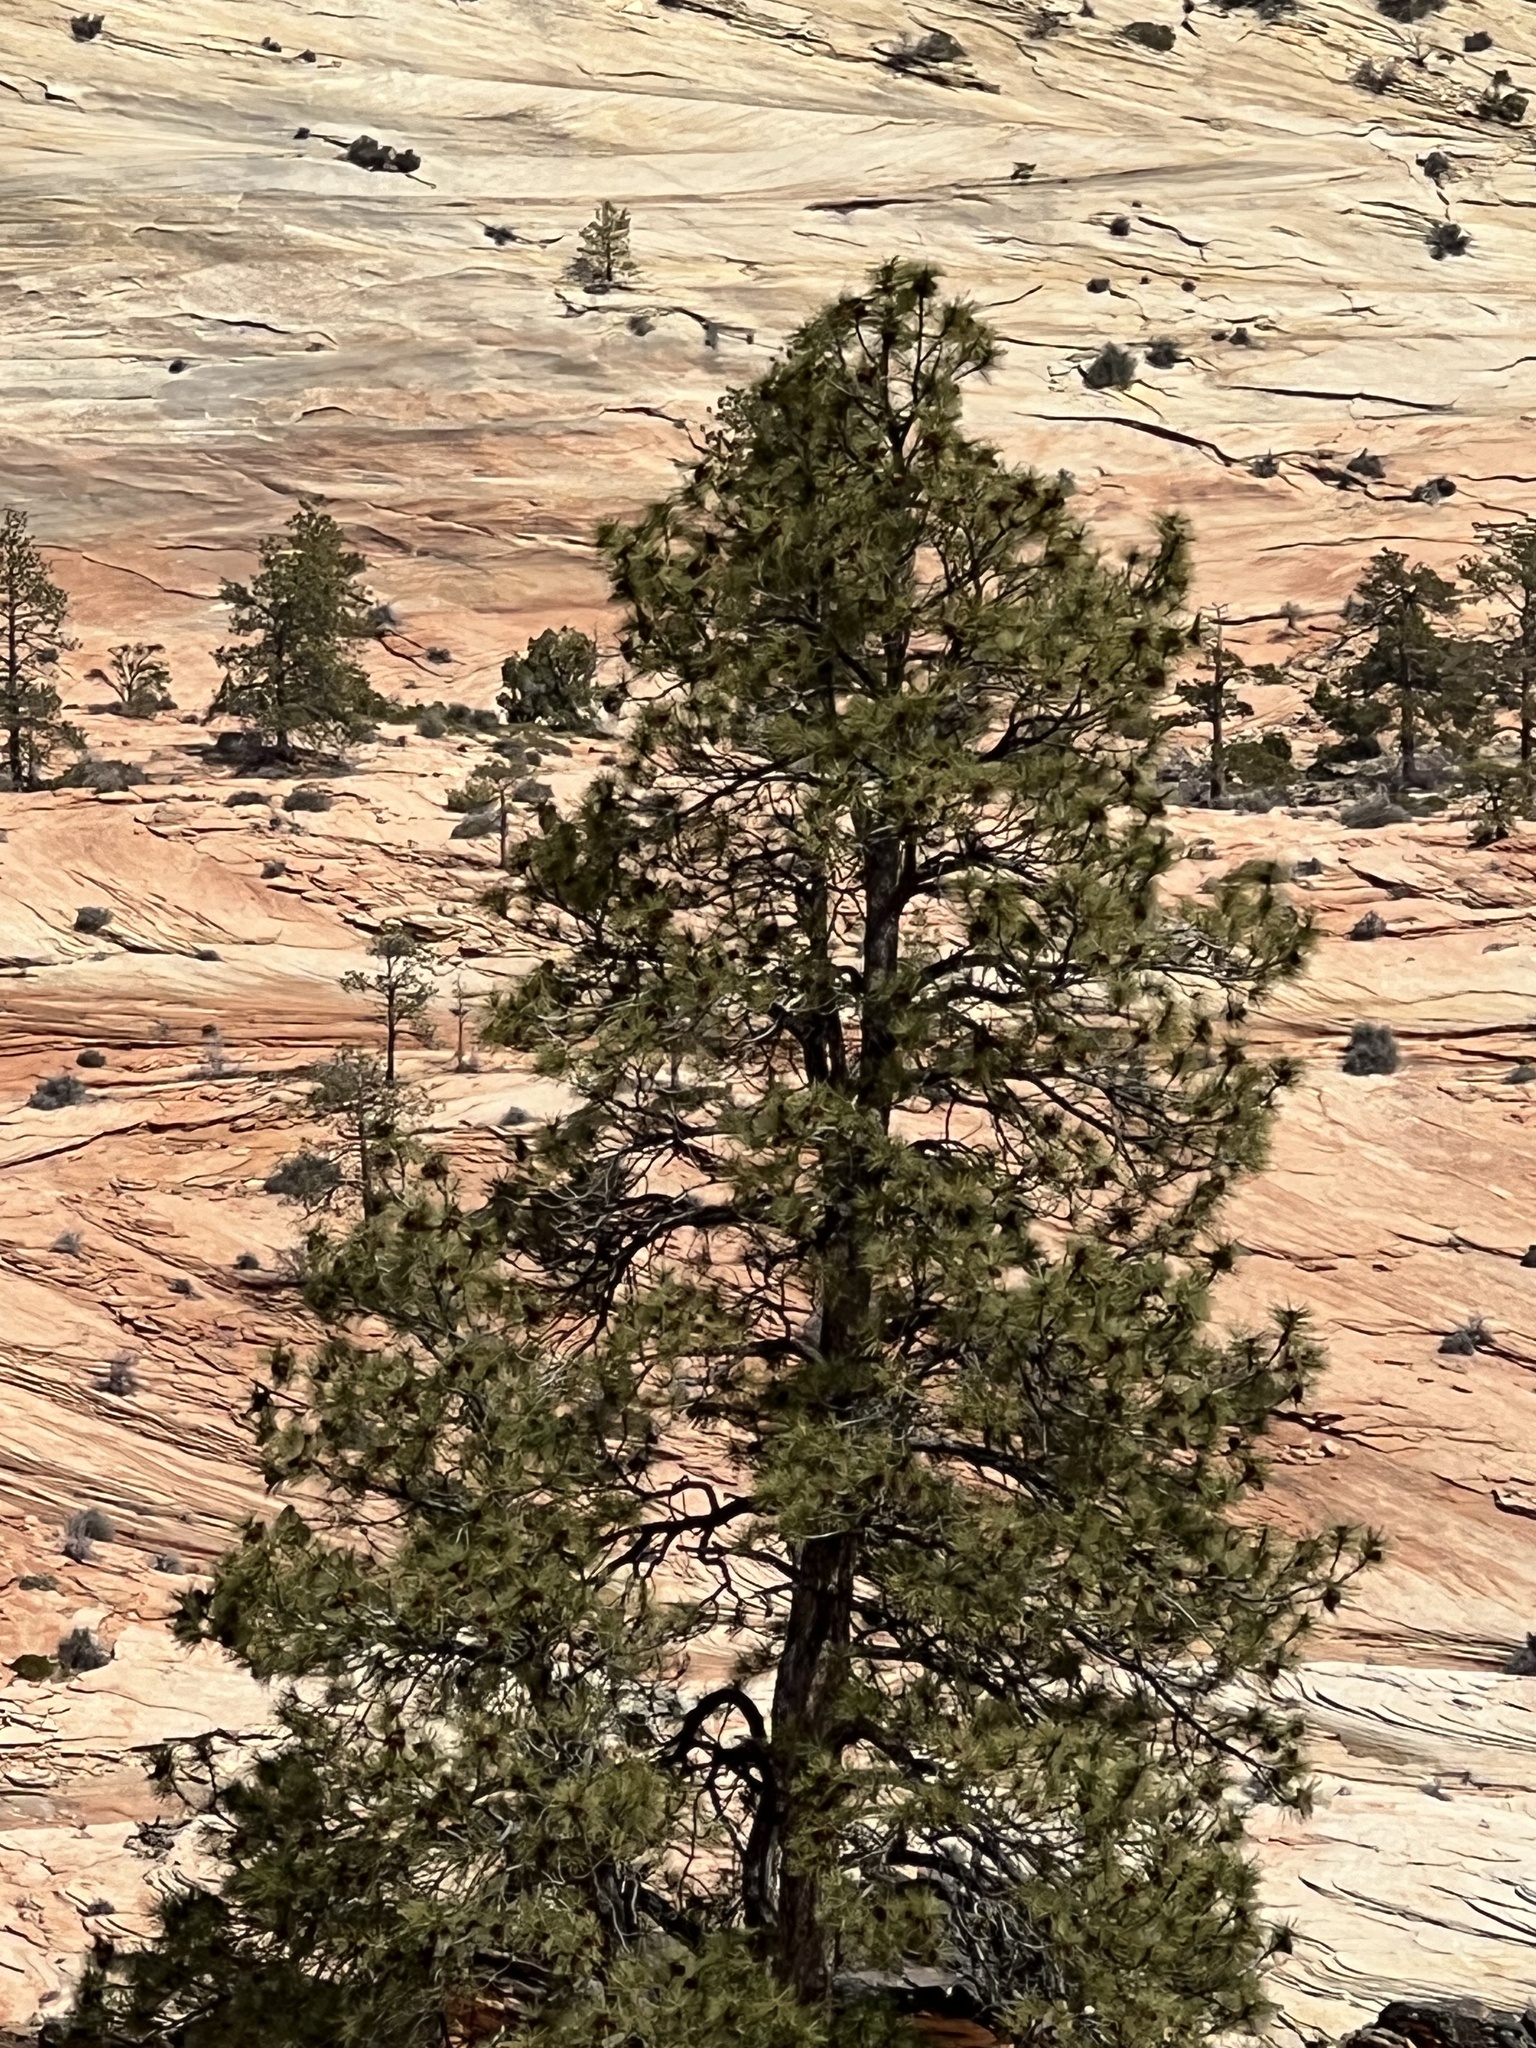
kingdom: Plantae
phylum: Tracheophyta
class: Pinopsida
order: Pinales
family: Pinaceae
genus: Pinus
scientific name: Pinus ponderosa
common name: Western yellow-pine
